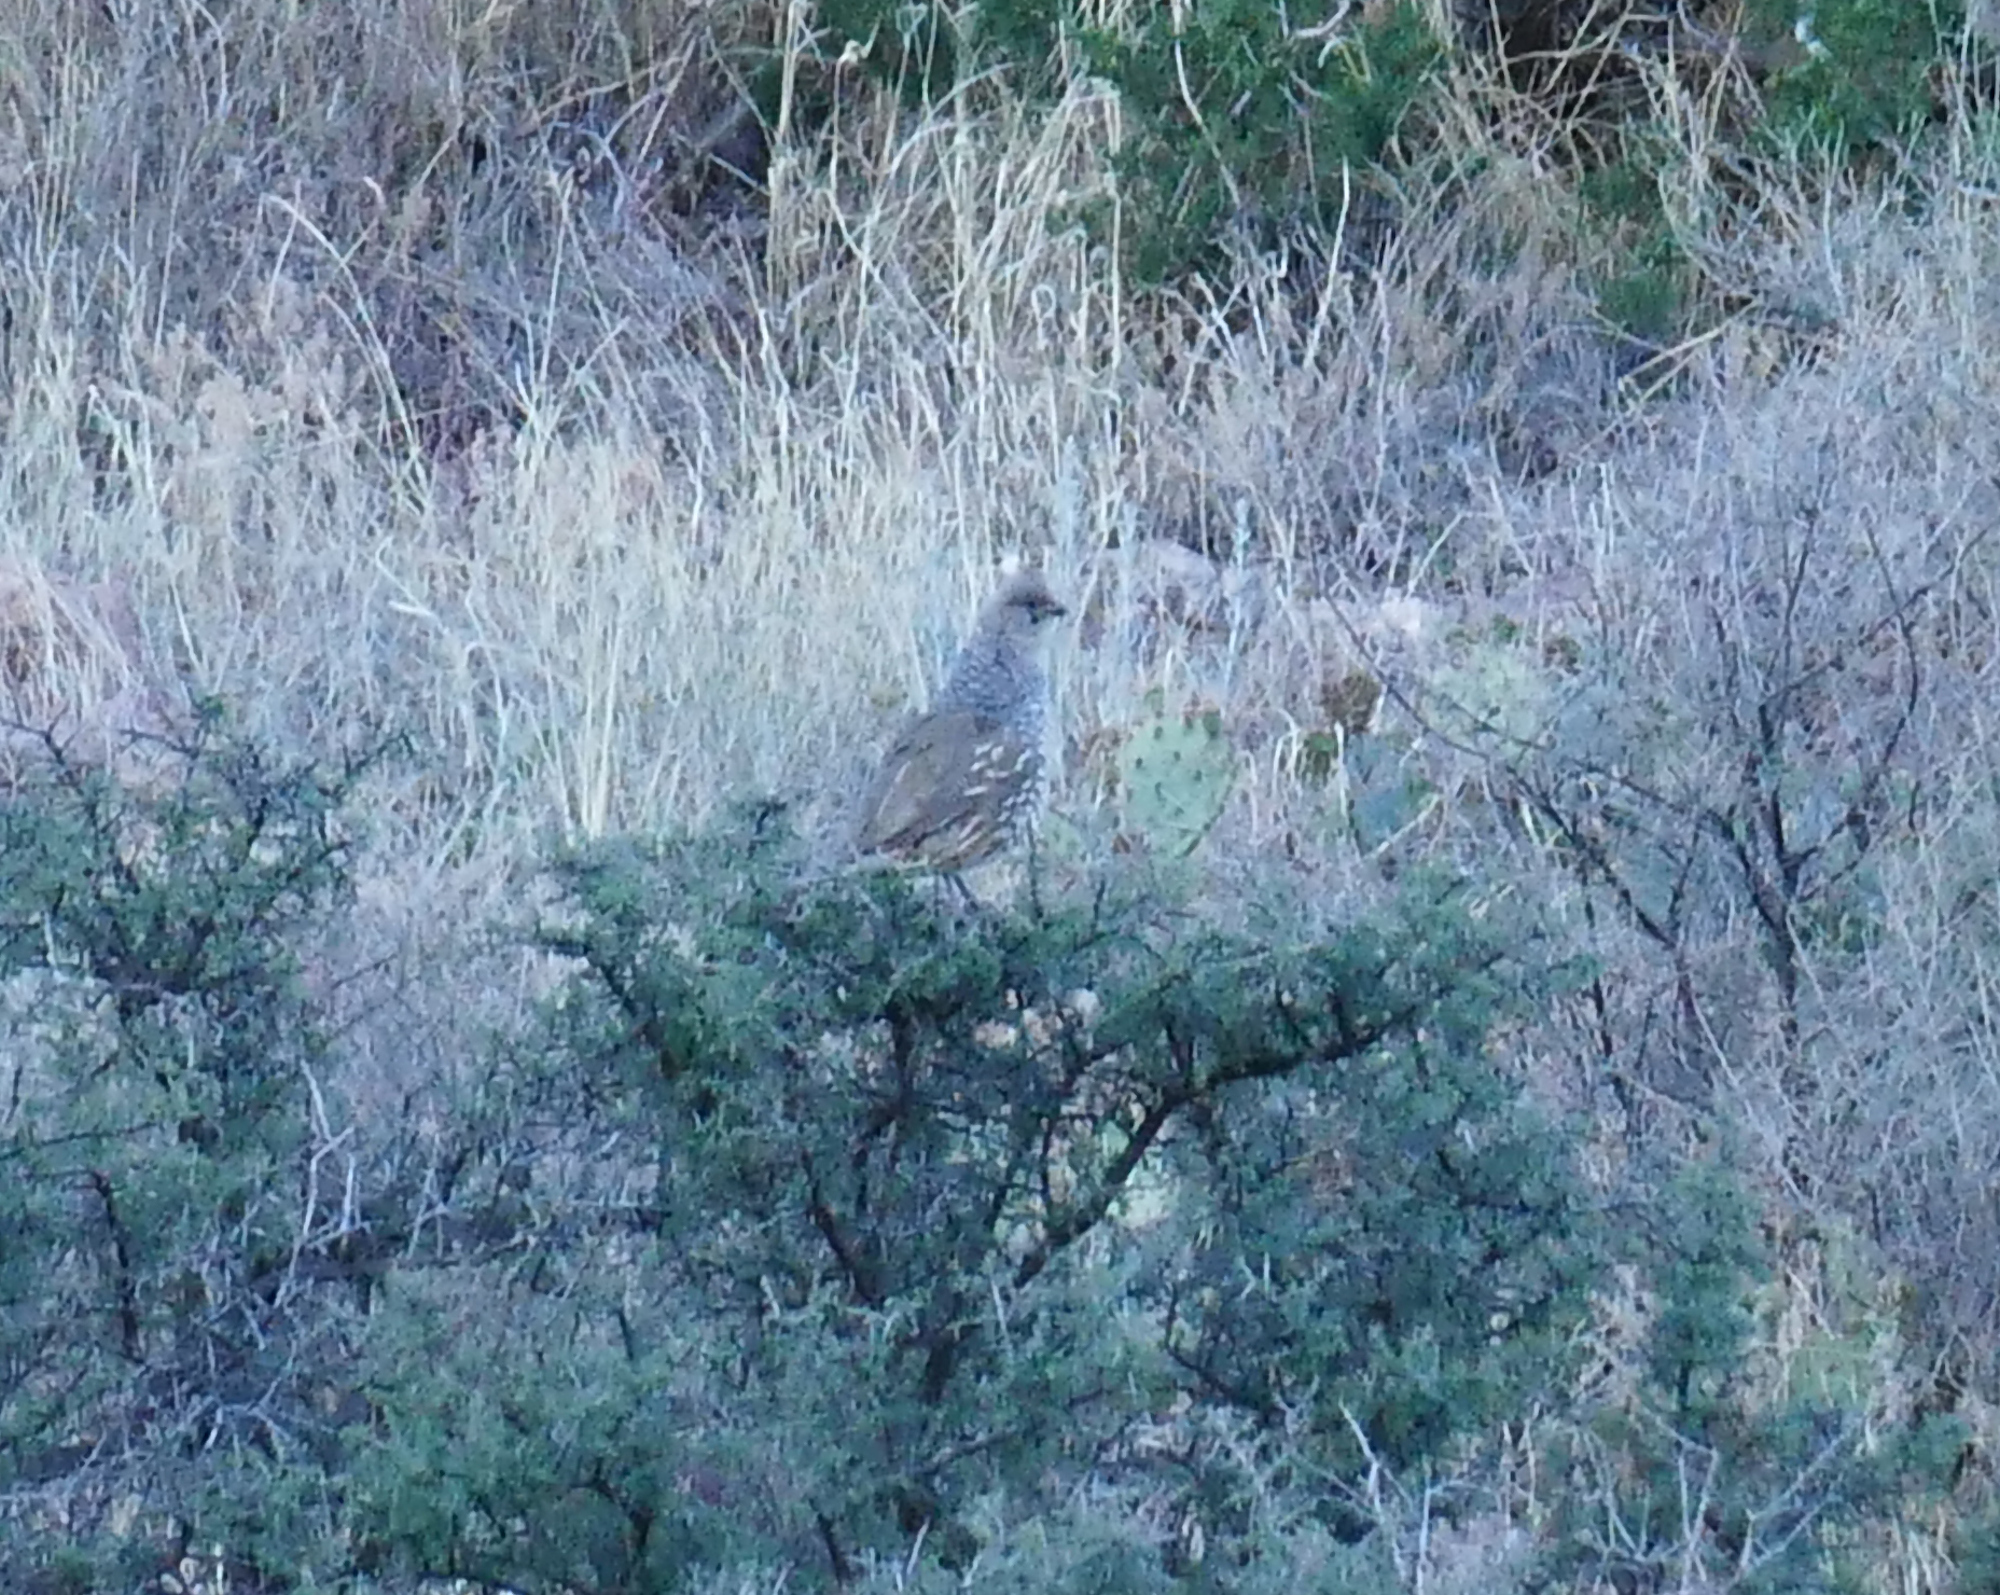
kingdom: Animalia
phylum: Chordata
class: Aves
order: Galliformes
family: Odontophoridae
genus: Callipepla
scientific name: Callipepla squamata
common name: Scaled quail
